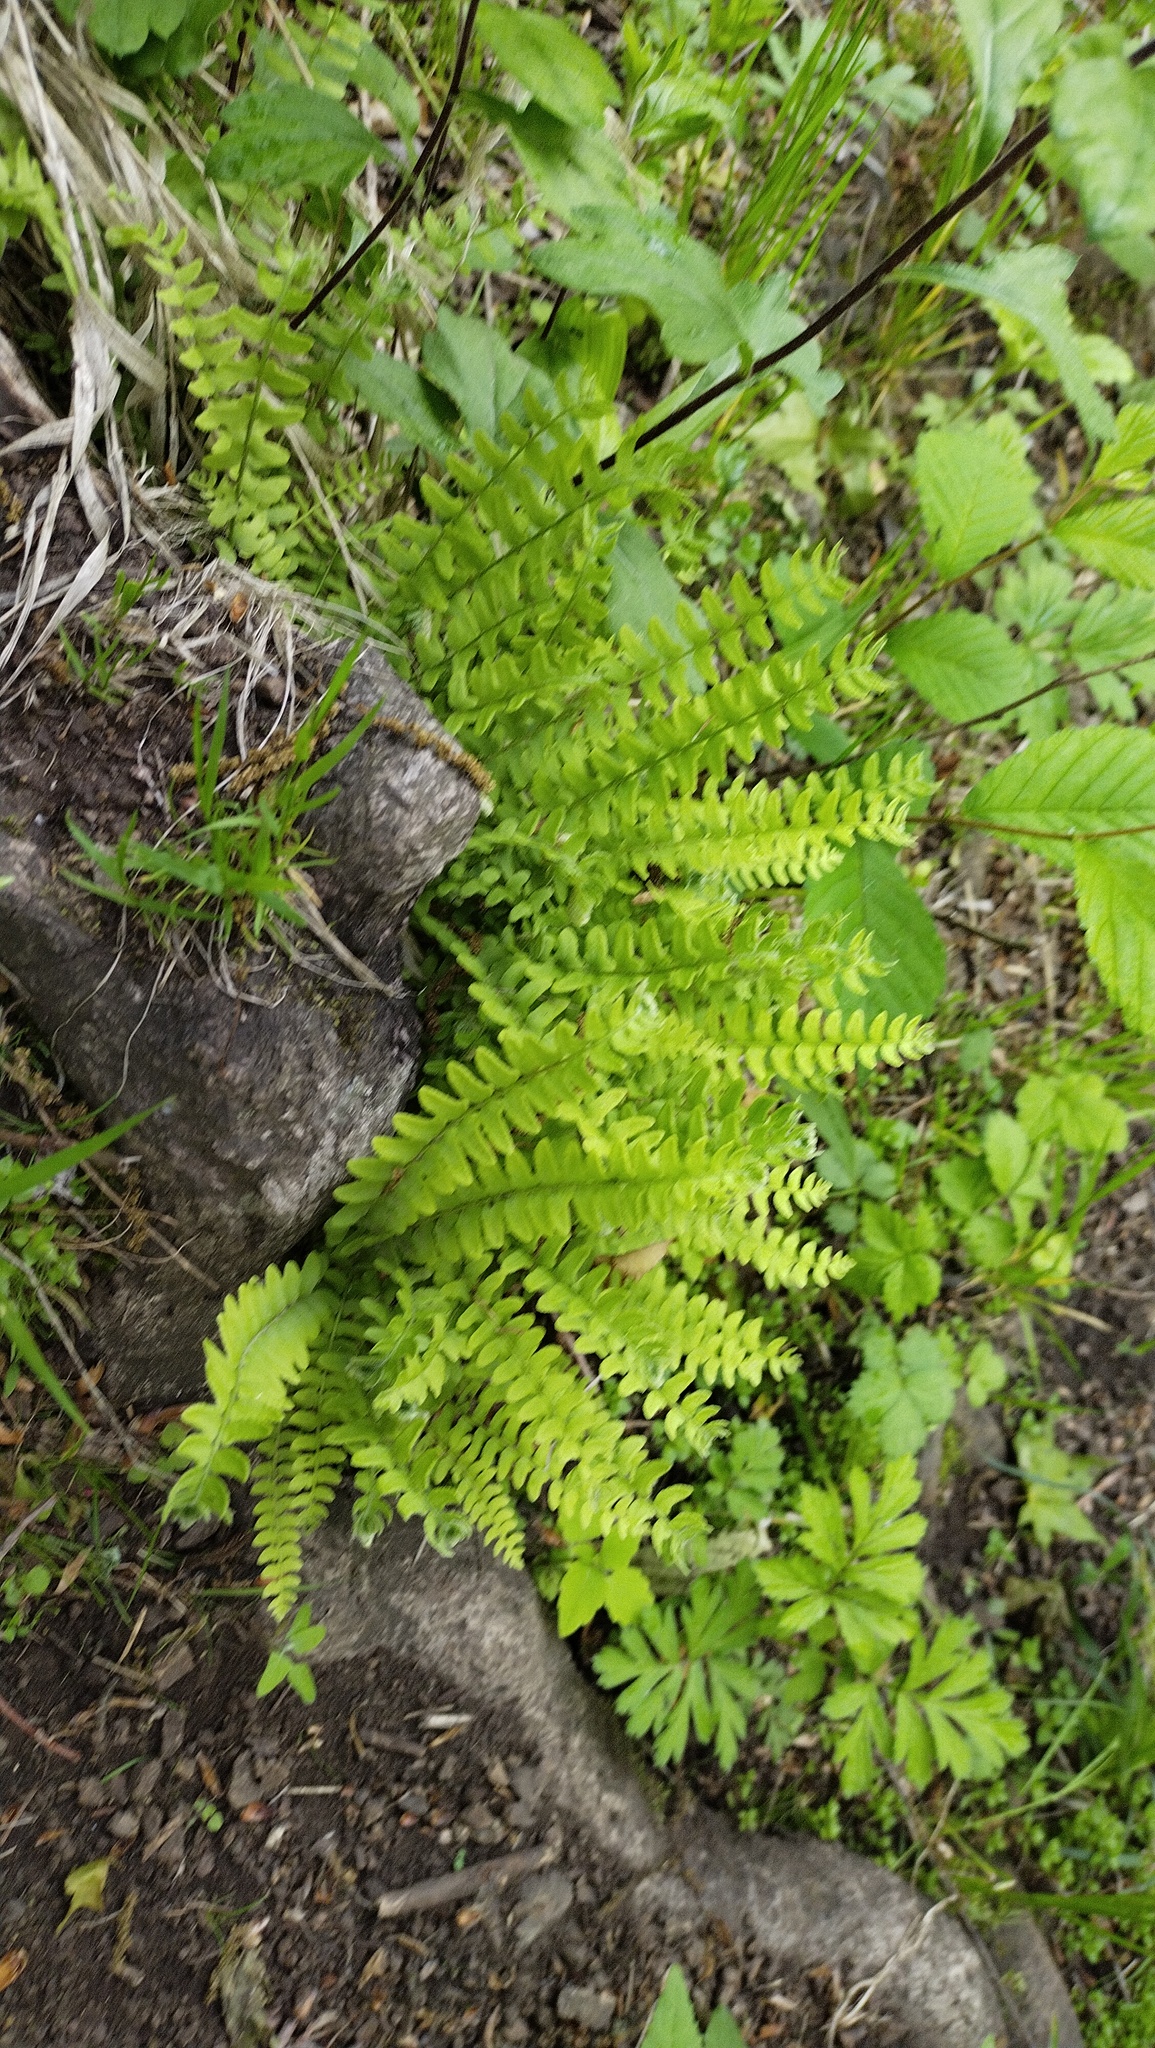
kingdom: Plantae
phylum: Tracheophyta
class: Polypodiopsida
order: Polypodiales
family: Woodsiaceae
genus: Woodsia
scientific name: Woodsia polystichoides
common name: Holly fern woodsia
